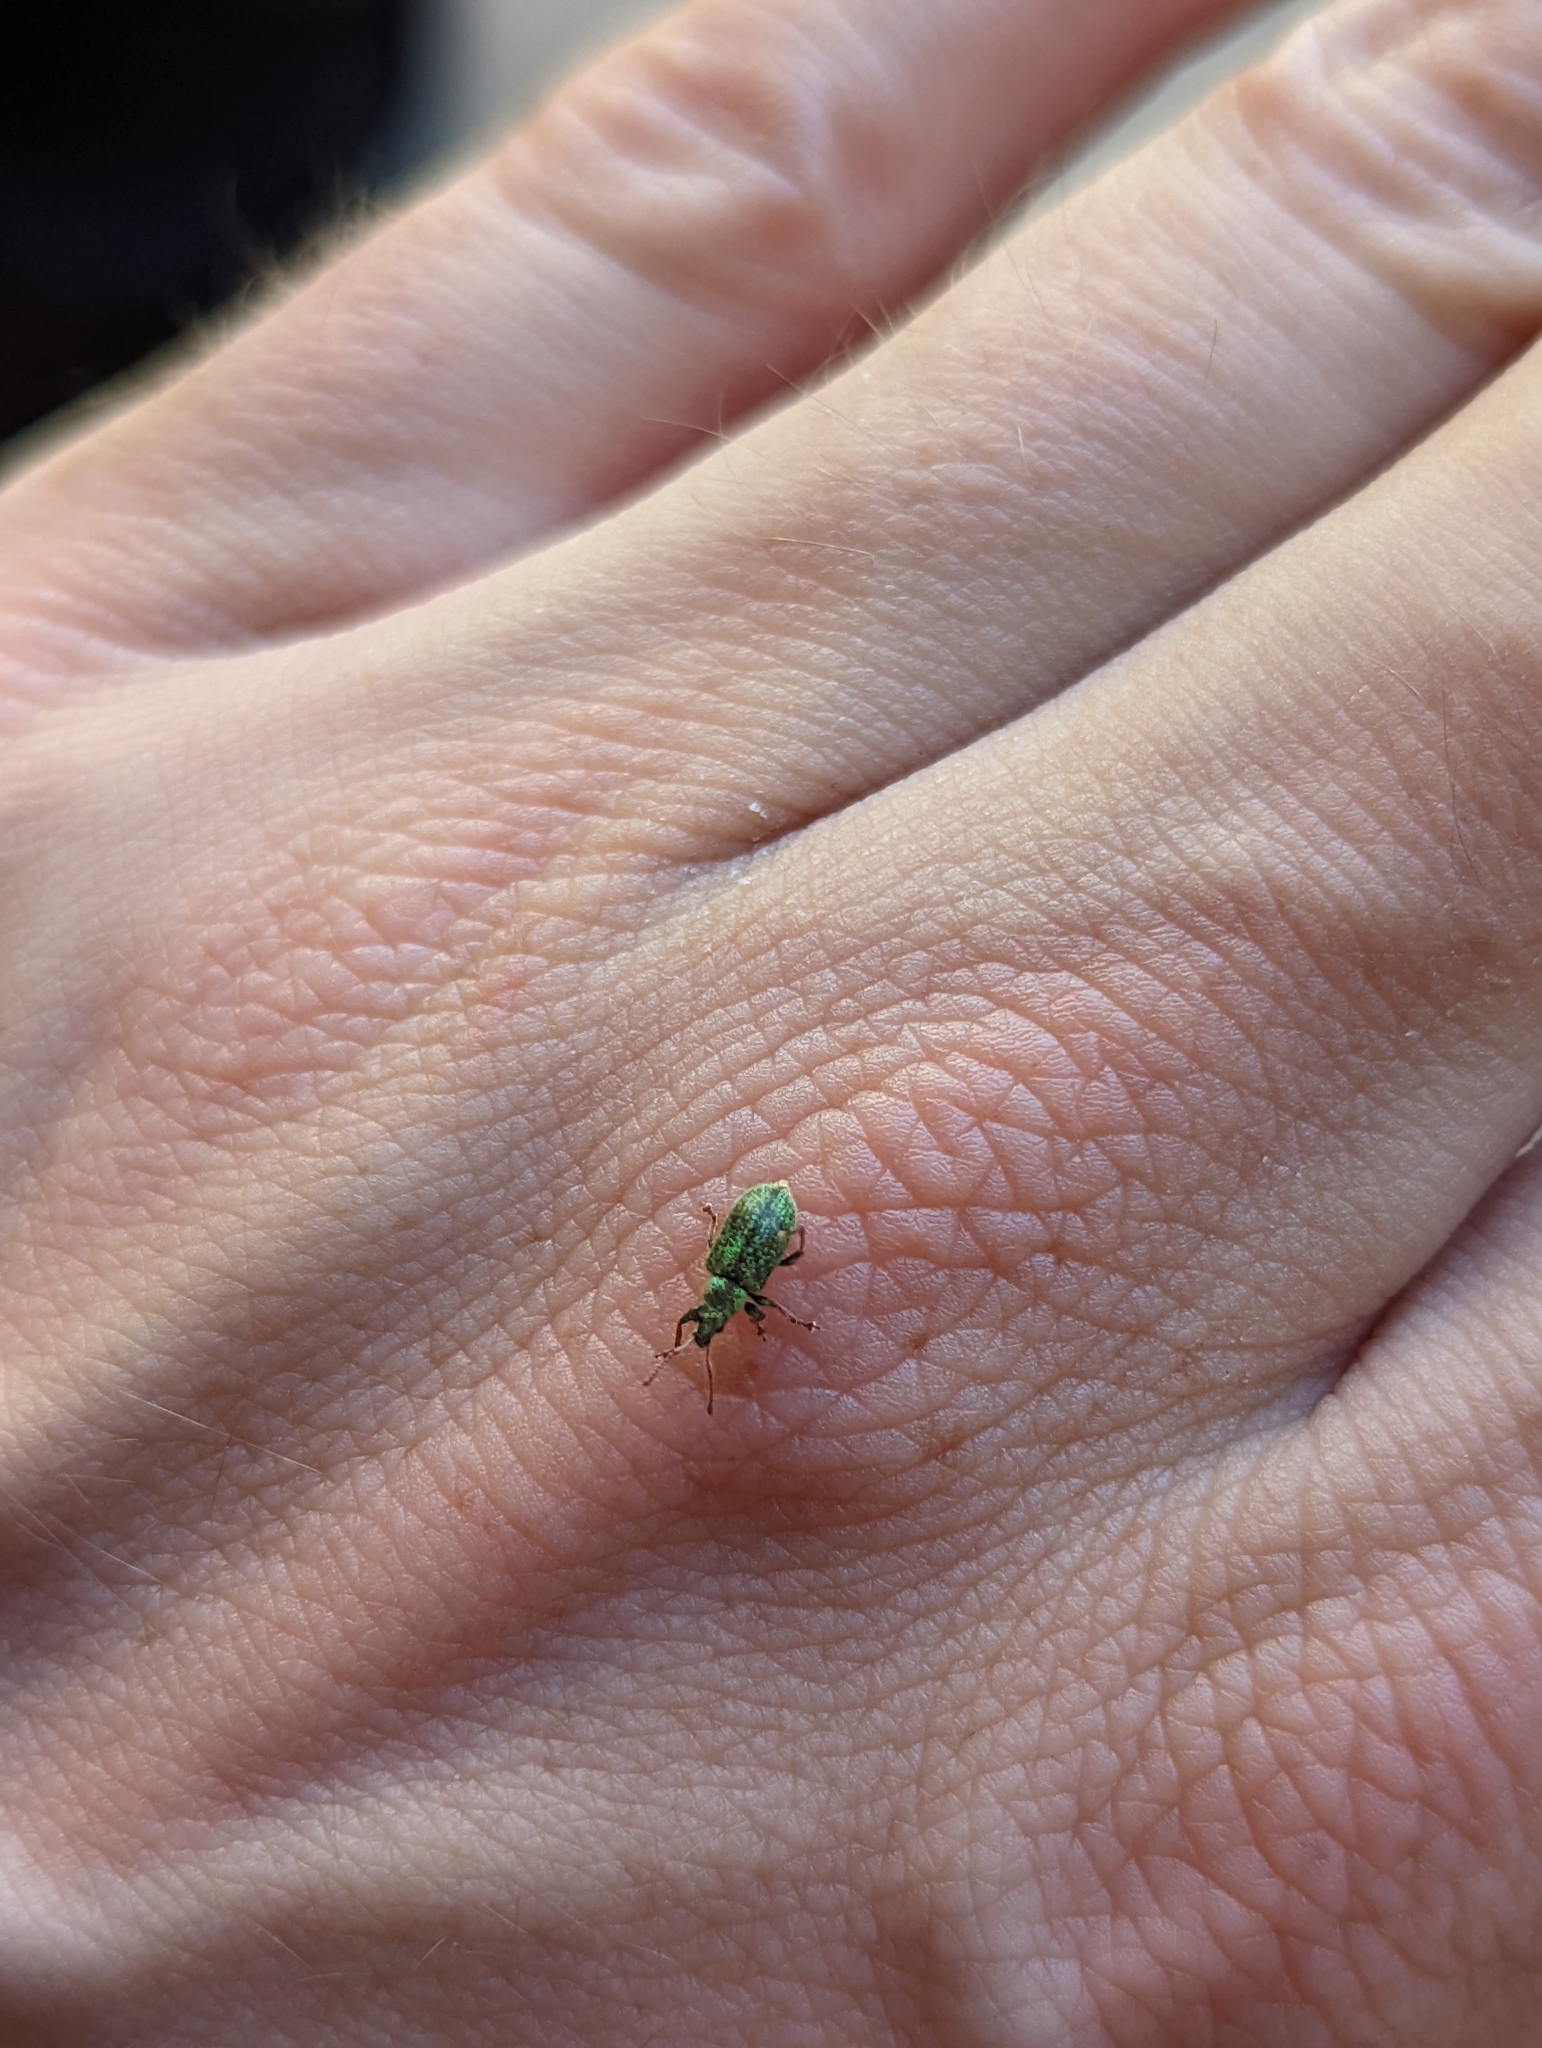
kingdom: Animalia
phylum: Arthropoda
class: Insecta
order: Coleoptera
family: Curculionidae
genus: Phyllobius
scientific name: Phyllobius betulinus
